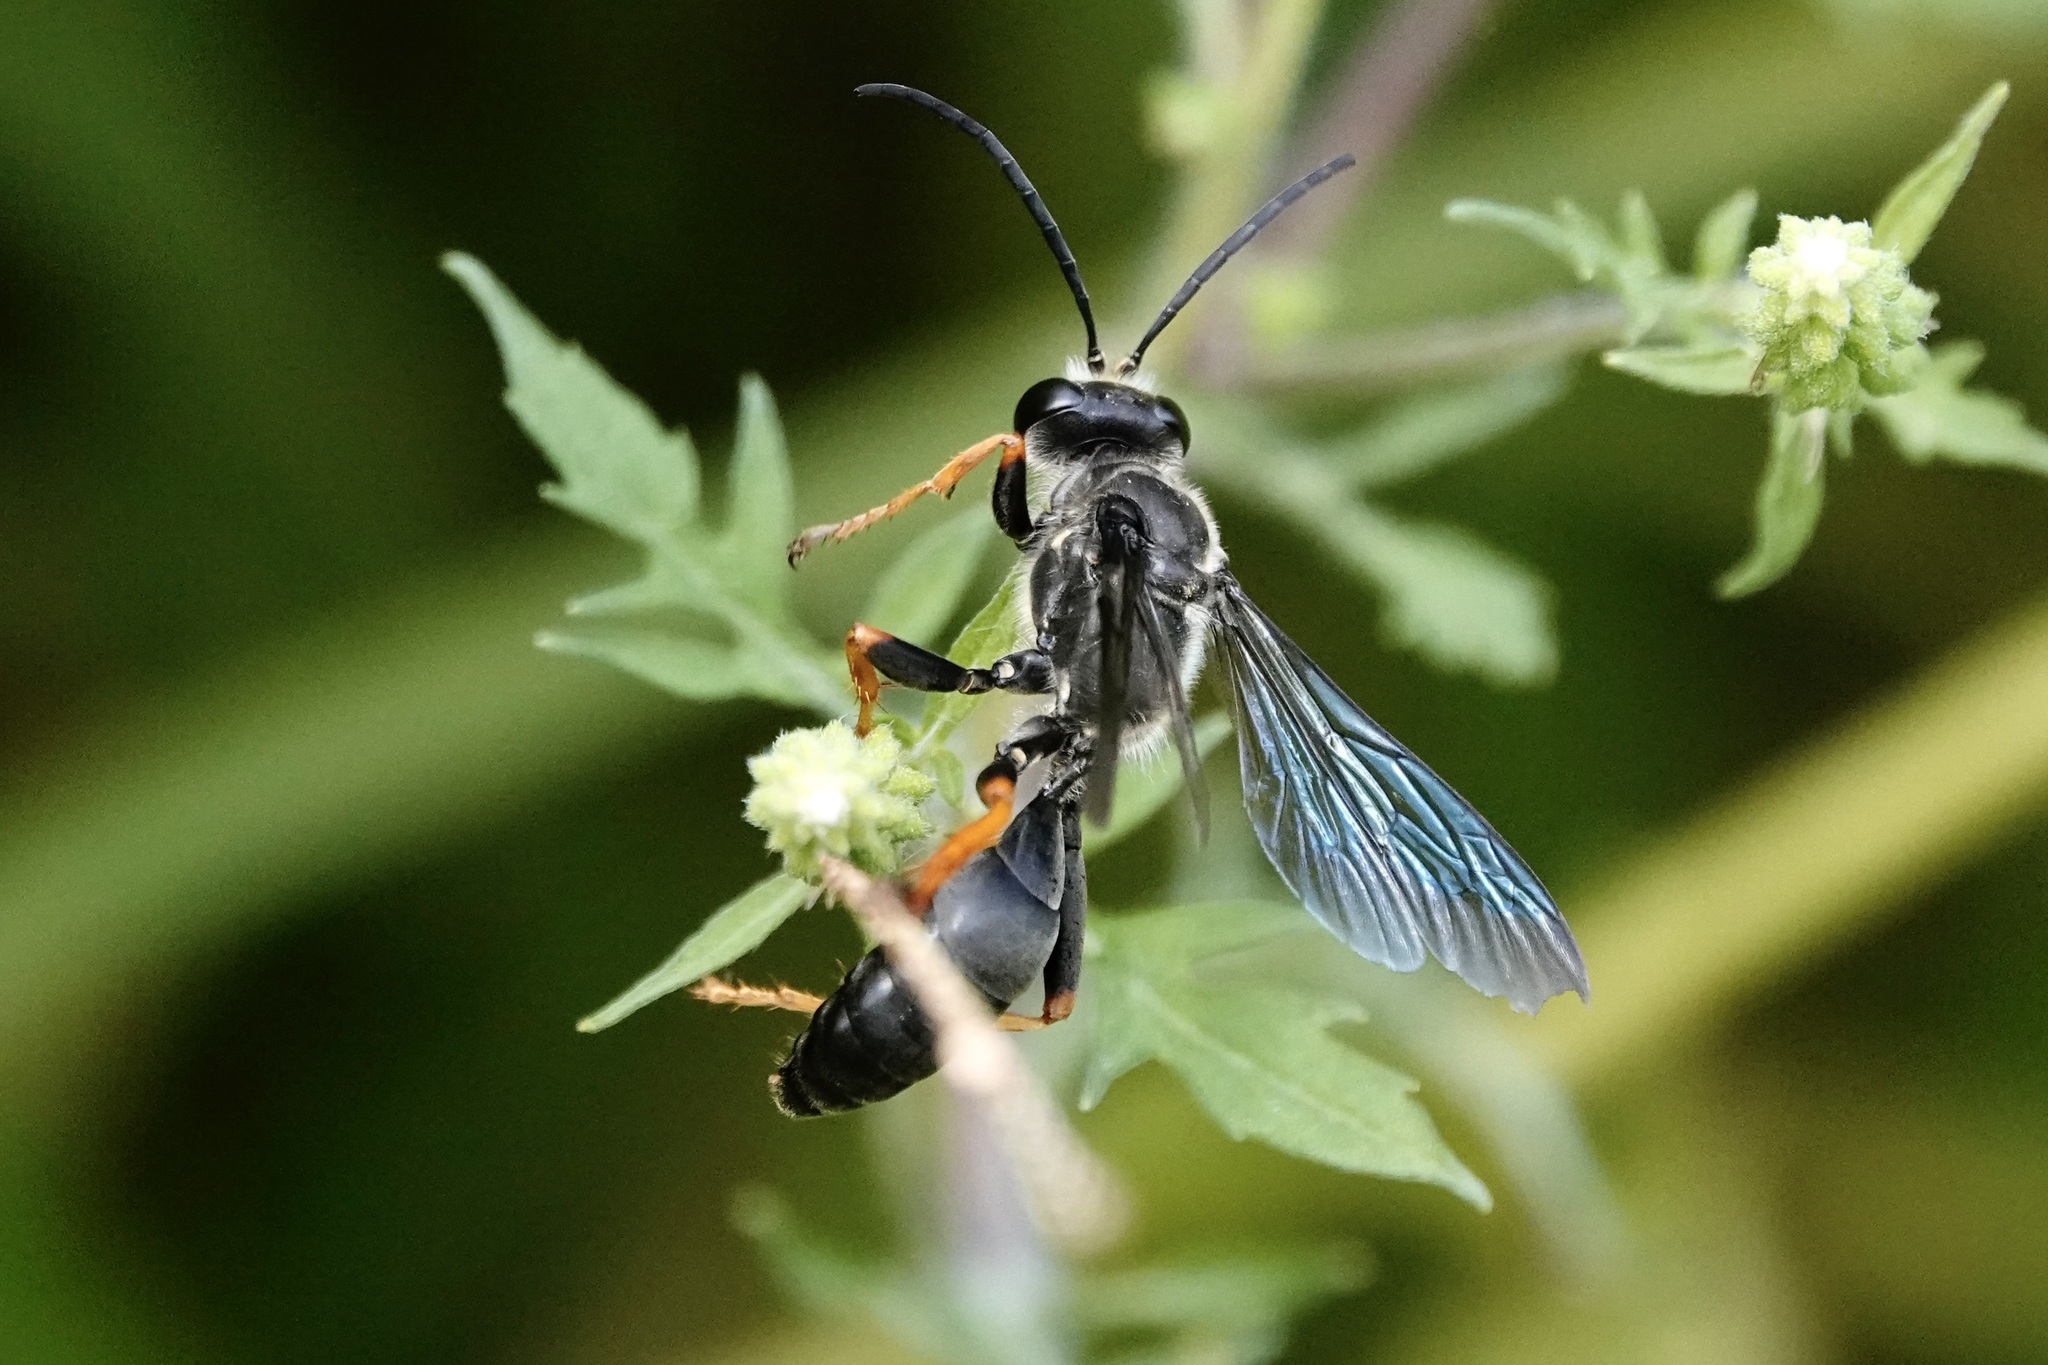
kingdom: Animalia
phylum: Arthropoda
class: Insecta
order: Hymenoptera
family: Sphecidae
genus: Sphex
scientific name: Sphex nudus
